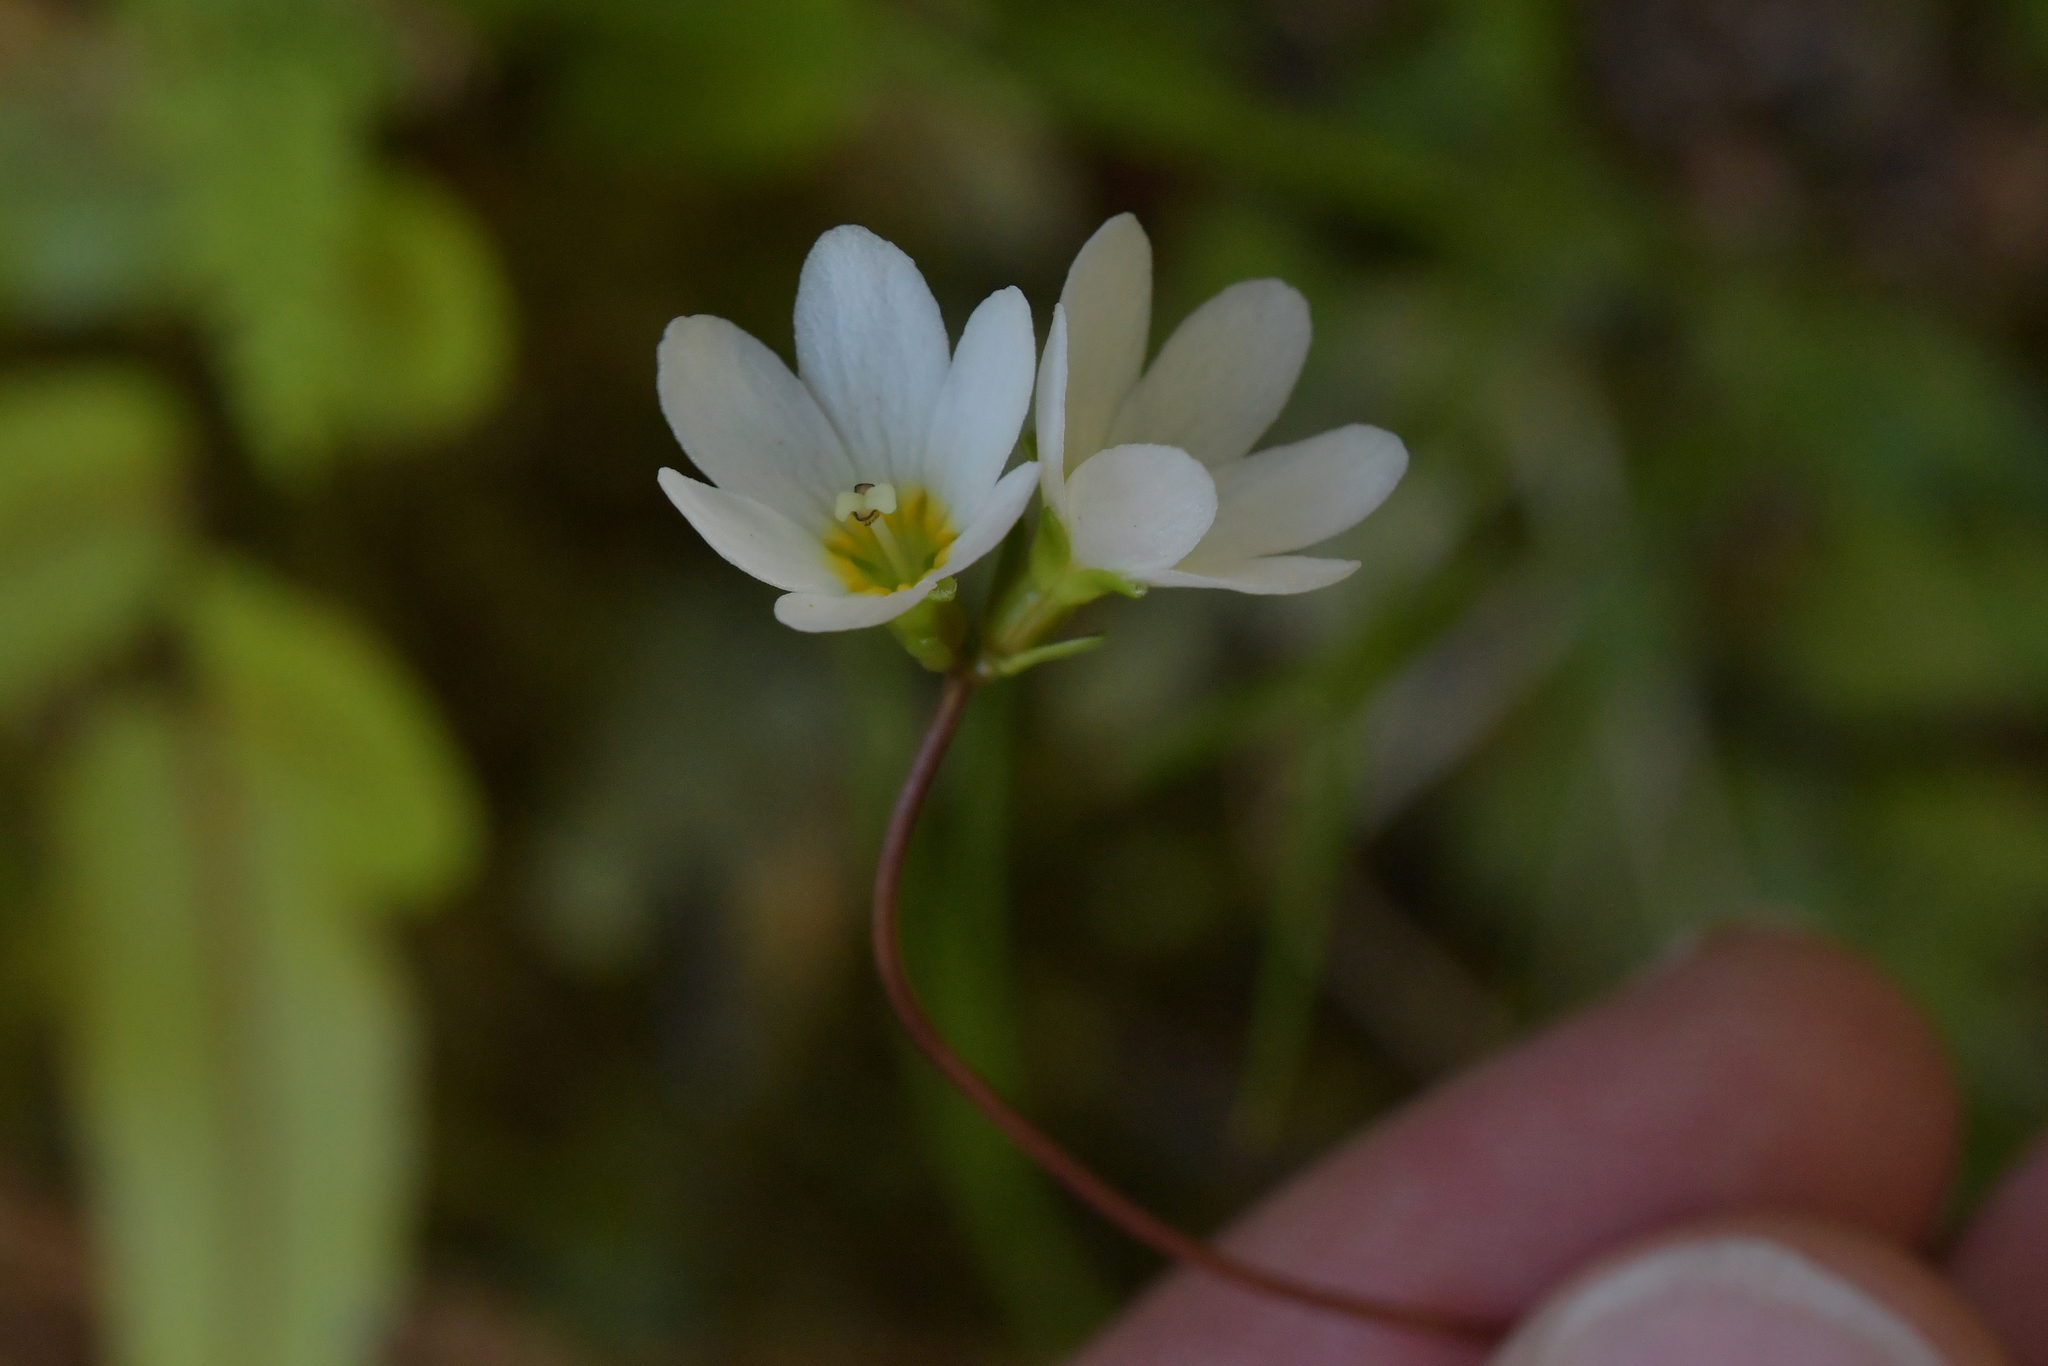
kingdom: Plantae
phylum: Tracheophyta
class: Magnoliopsida
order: Asterales
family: Stylidiaceae
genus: Forstera
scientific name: Forstera tenella
